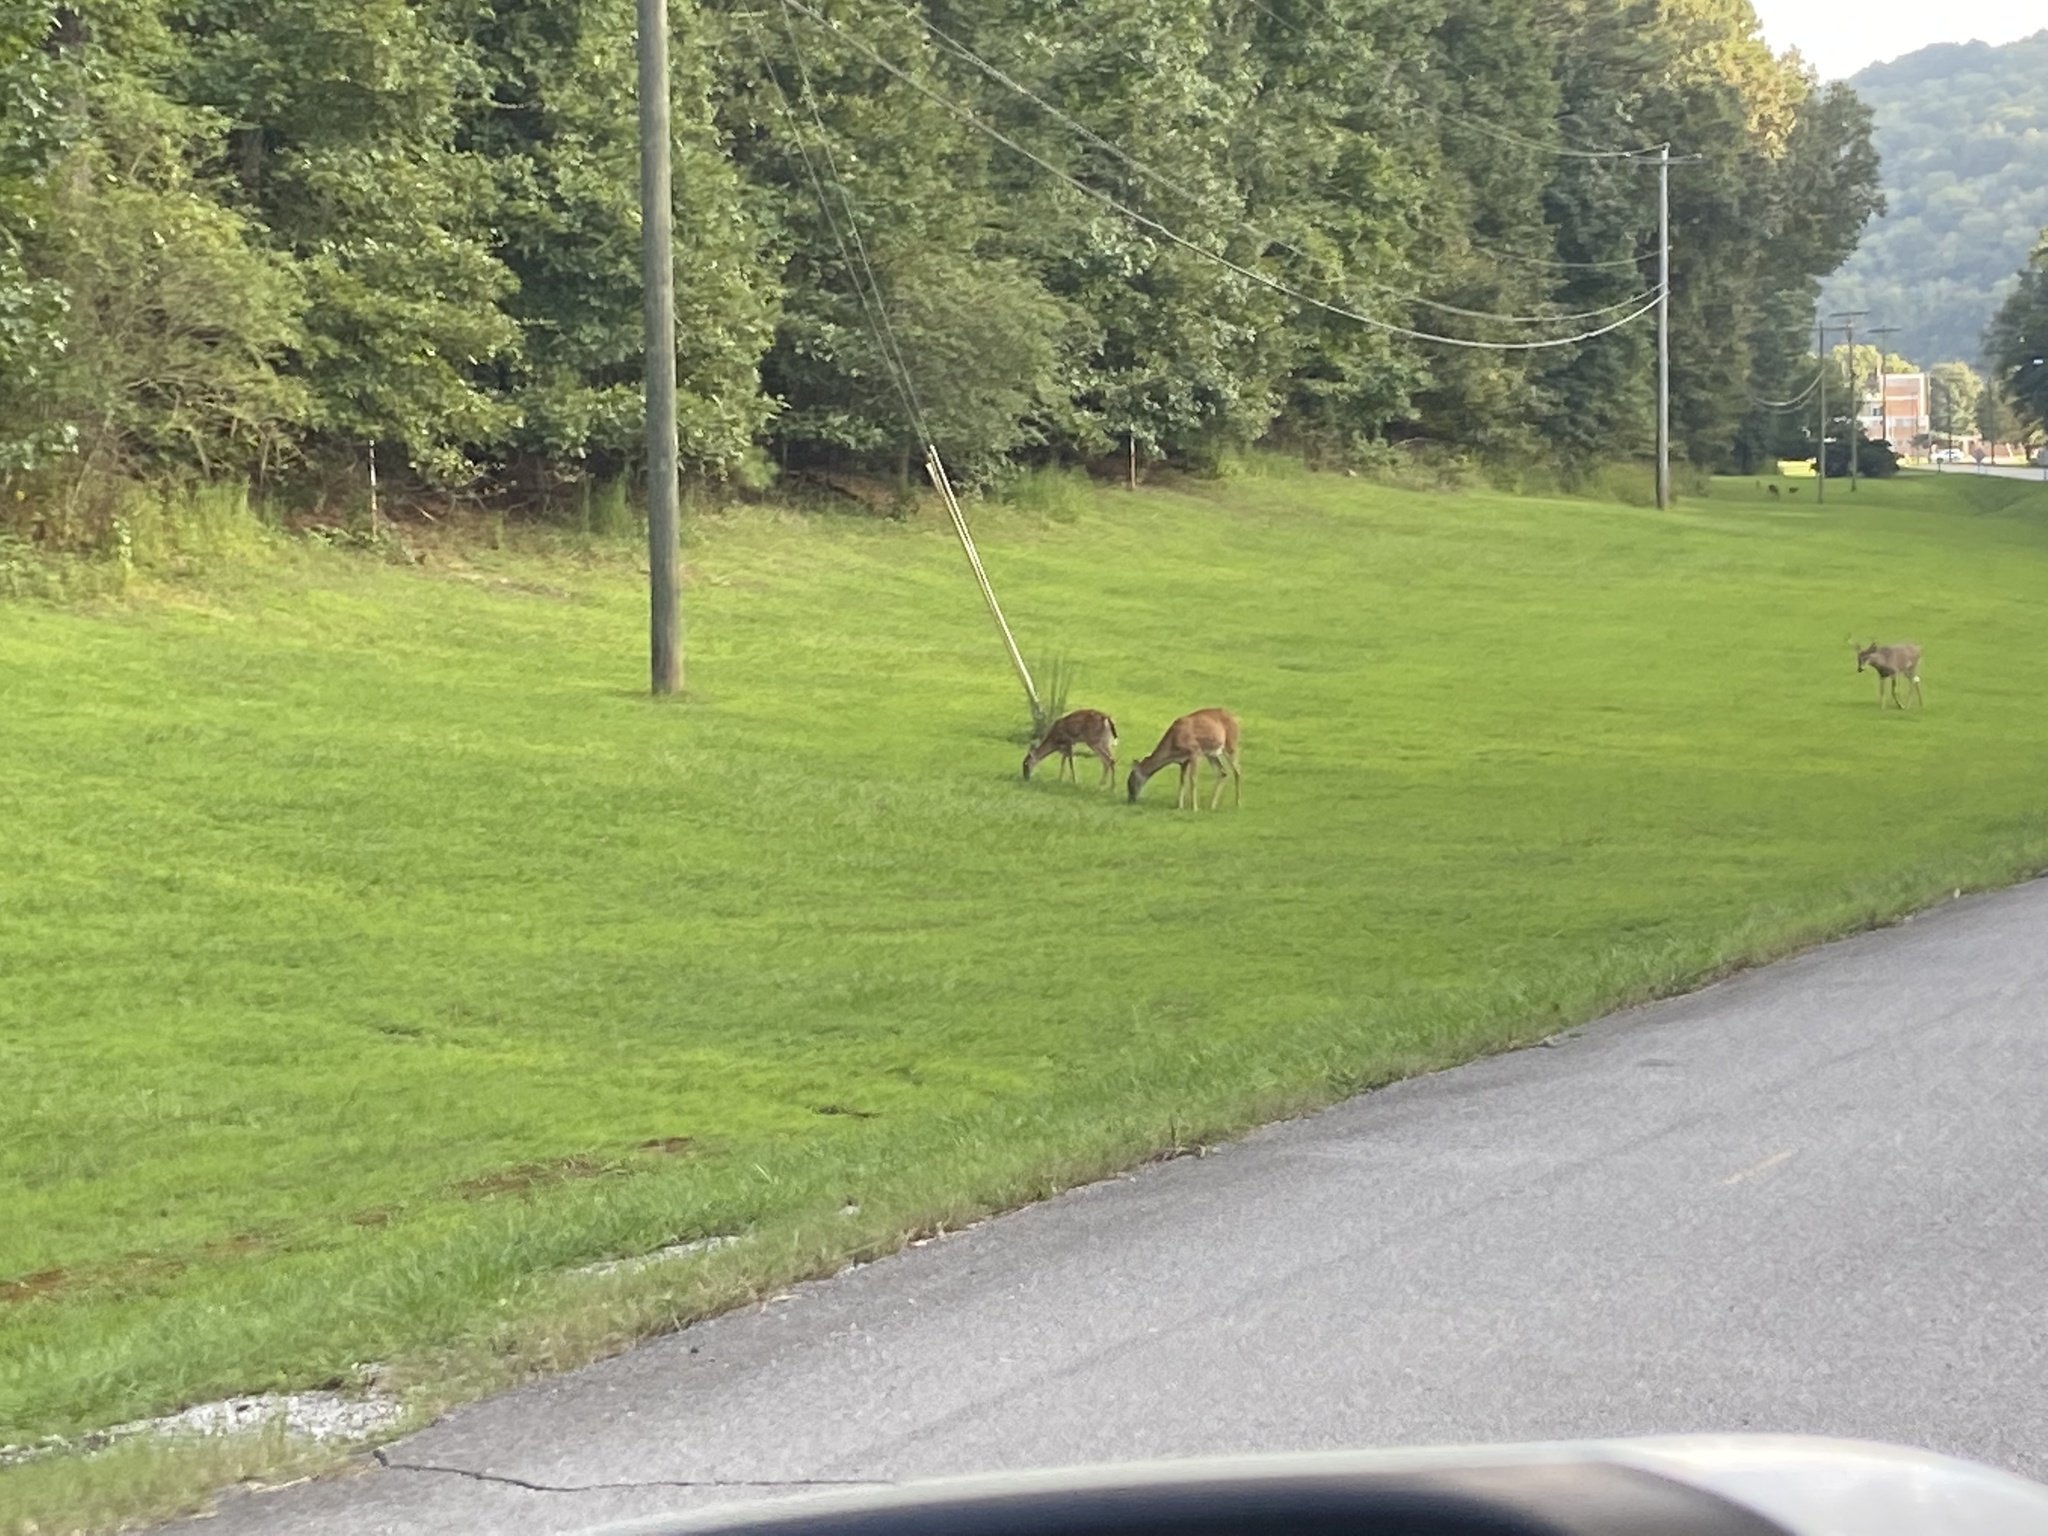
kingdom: Animalia
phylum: Chordata
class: Mammalia
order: Artiodactyla
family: Cervidae
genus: Odocoileus
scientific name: Odocoileus virginianus
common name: White-tailed deer
